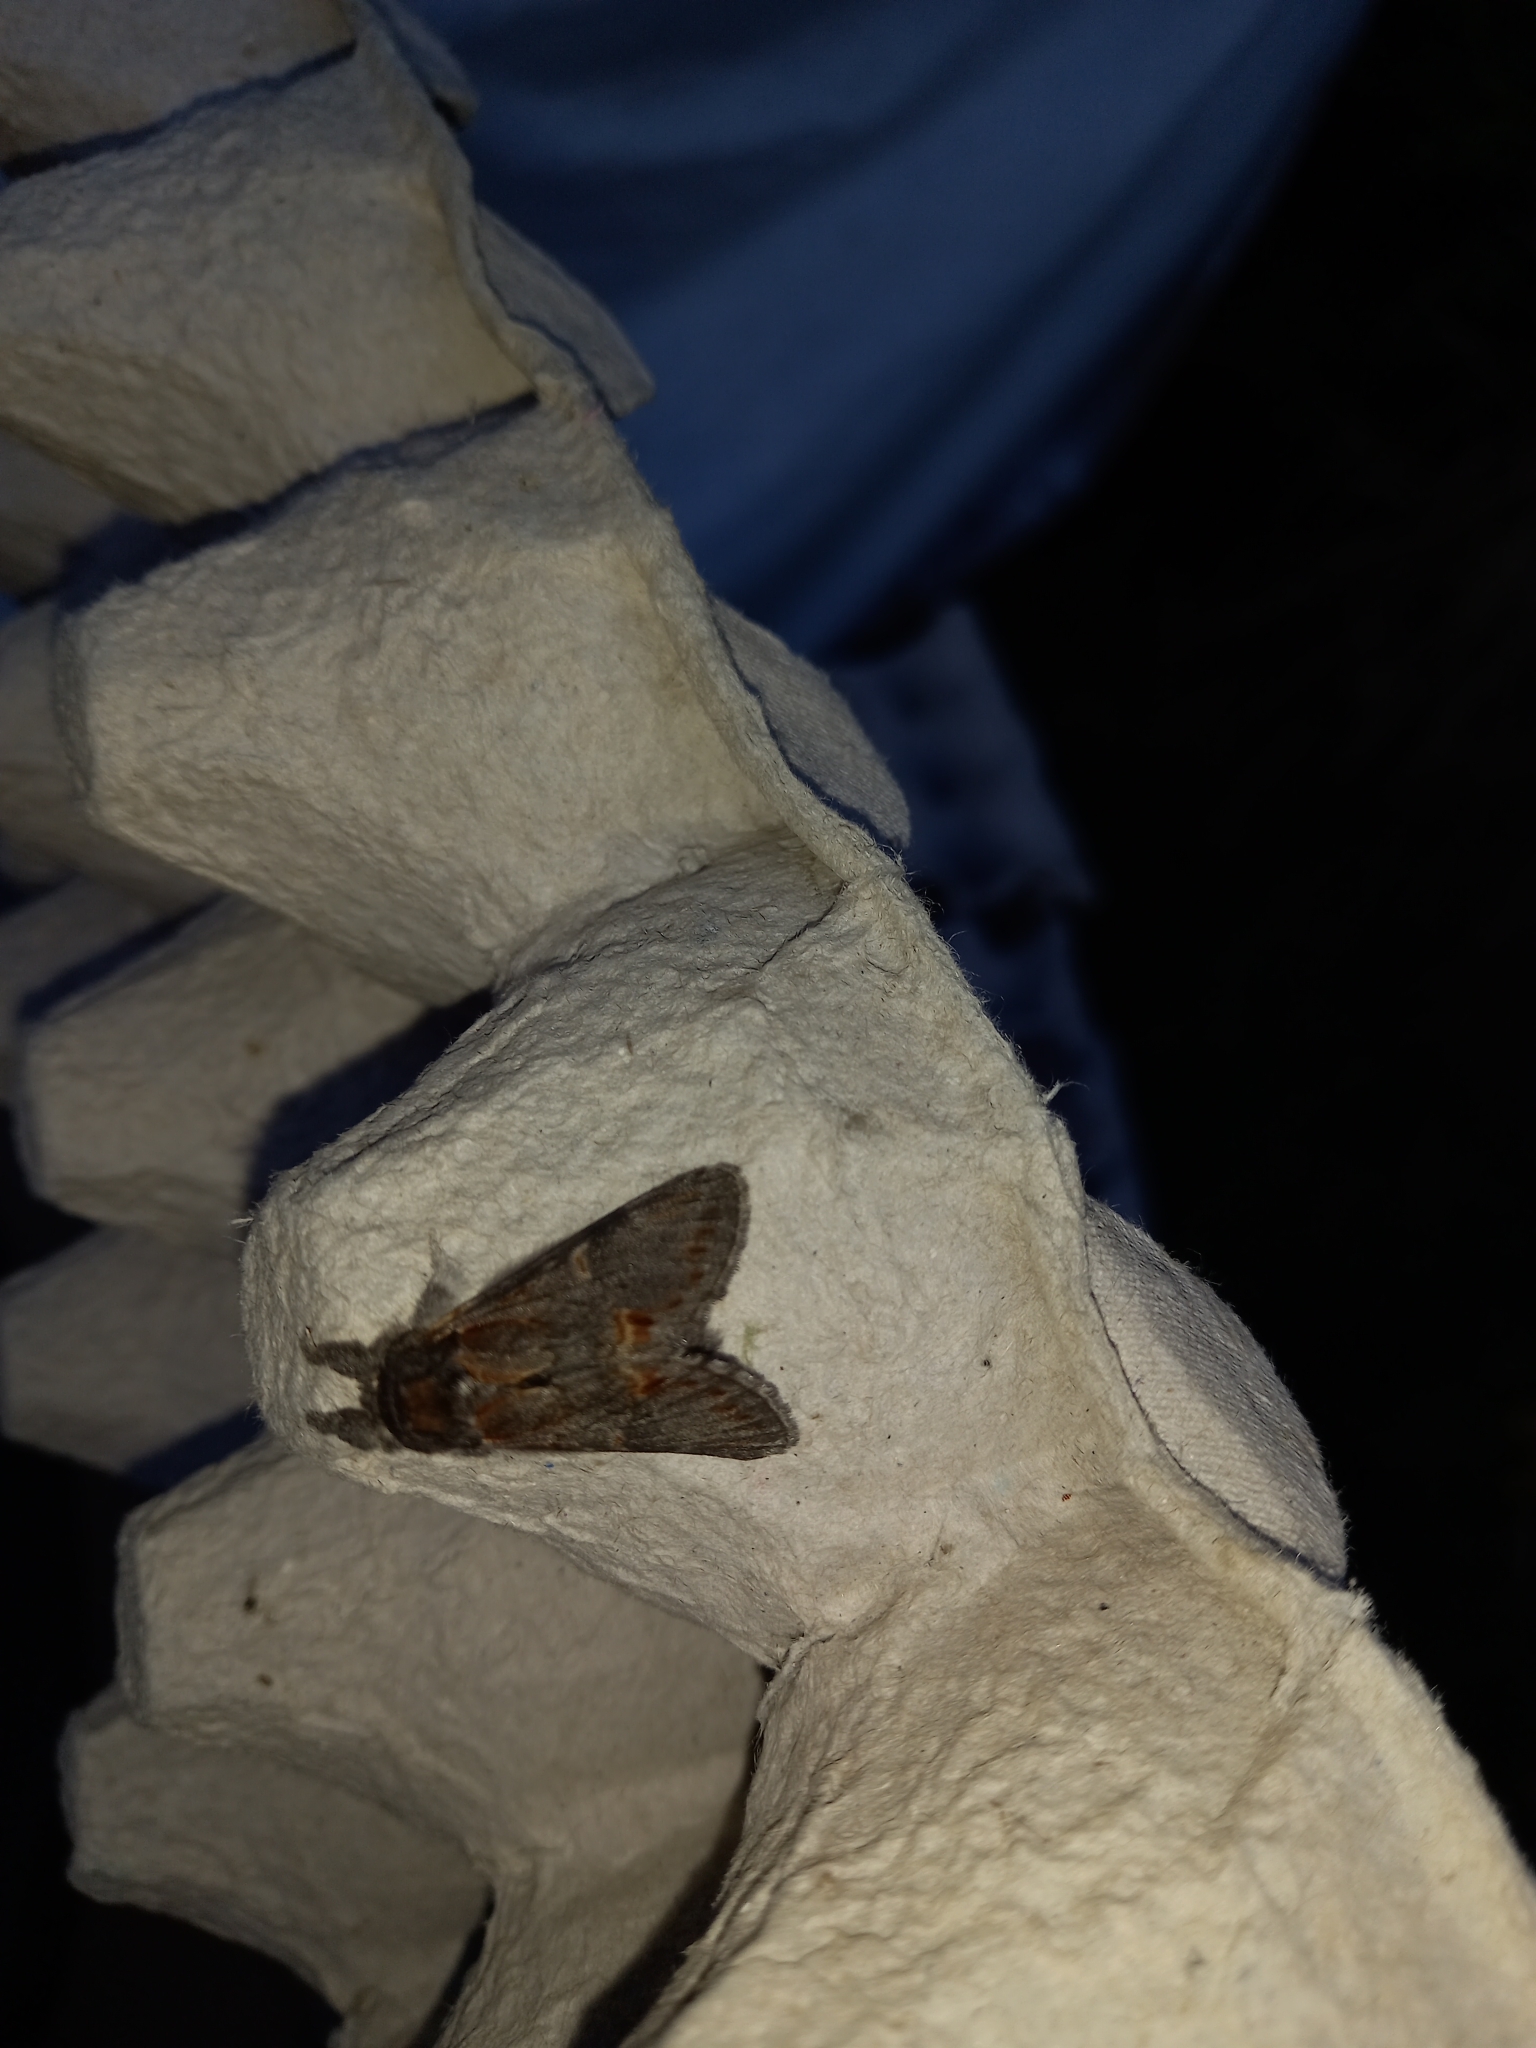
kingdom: Animalia
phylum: Arthropoda
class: Insecta
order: Lepidoptera
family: Notodontidae
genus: Notodonta
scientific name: Notodonta dromedarius
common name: Iron prominent
